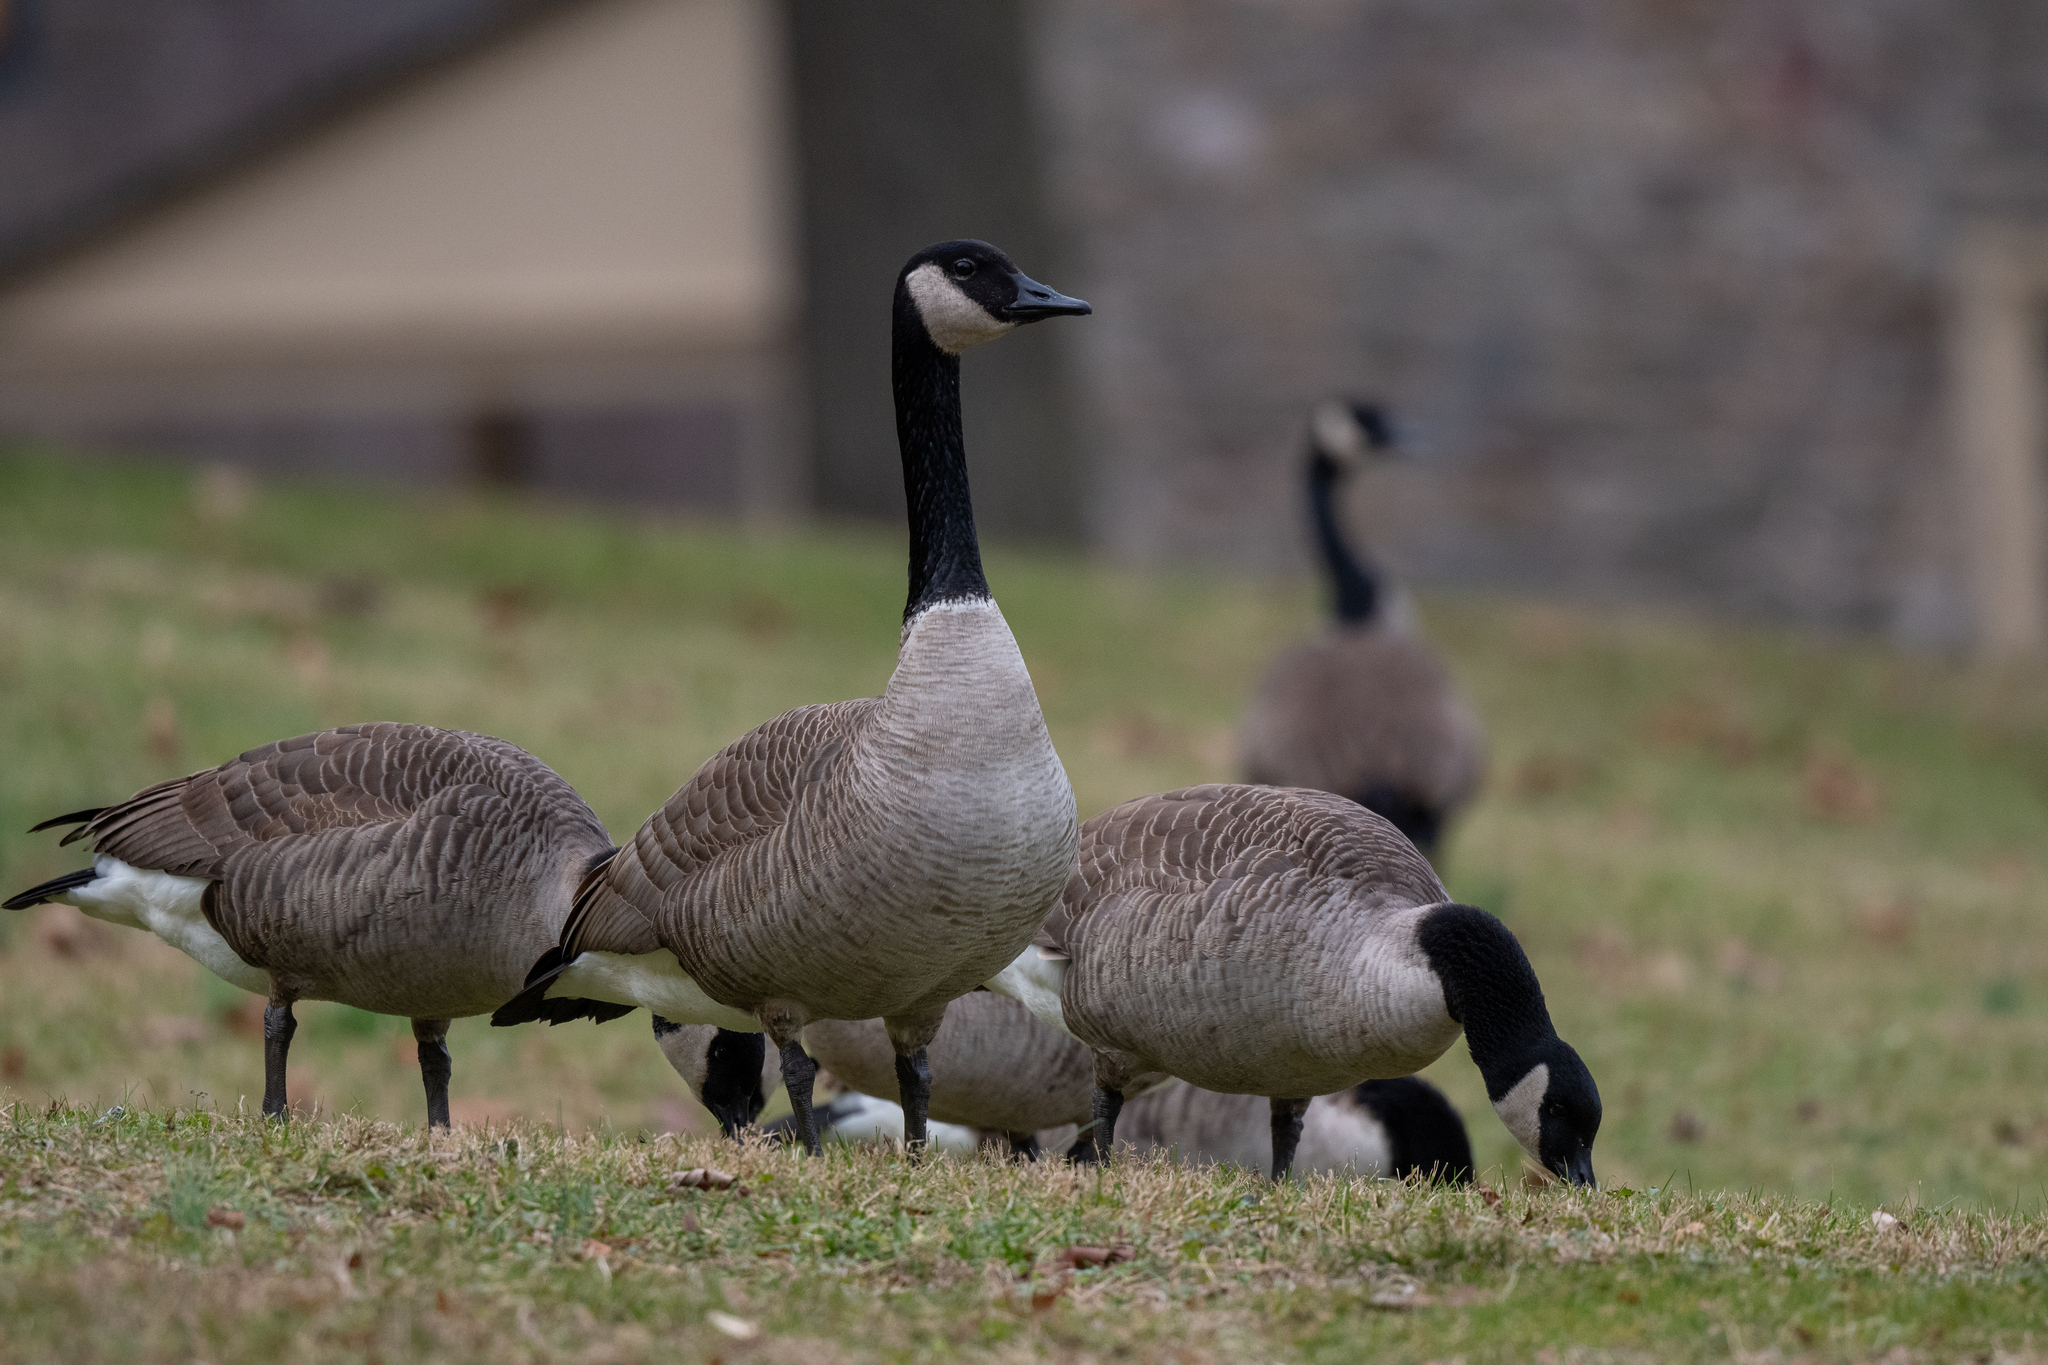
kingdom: Animalia
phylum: Chordata
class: Aves
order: Anseriformes
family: Anatidae
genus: Branta
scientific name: Branta canadensis
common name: Canada goose
